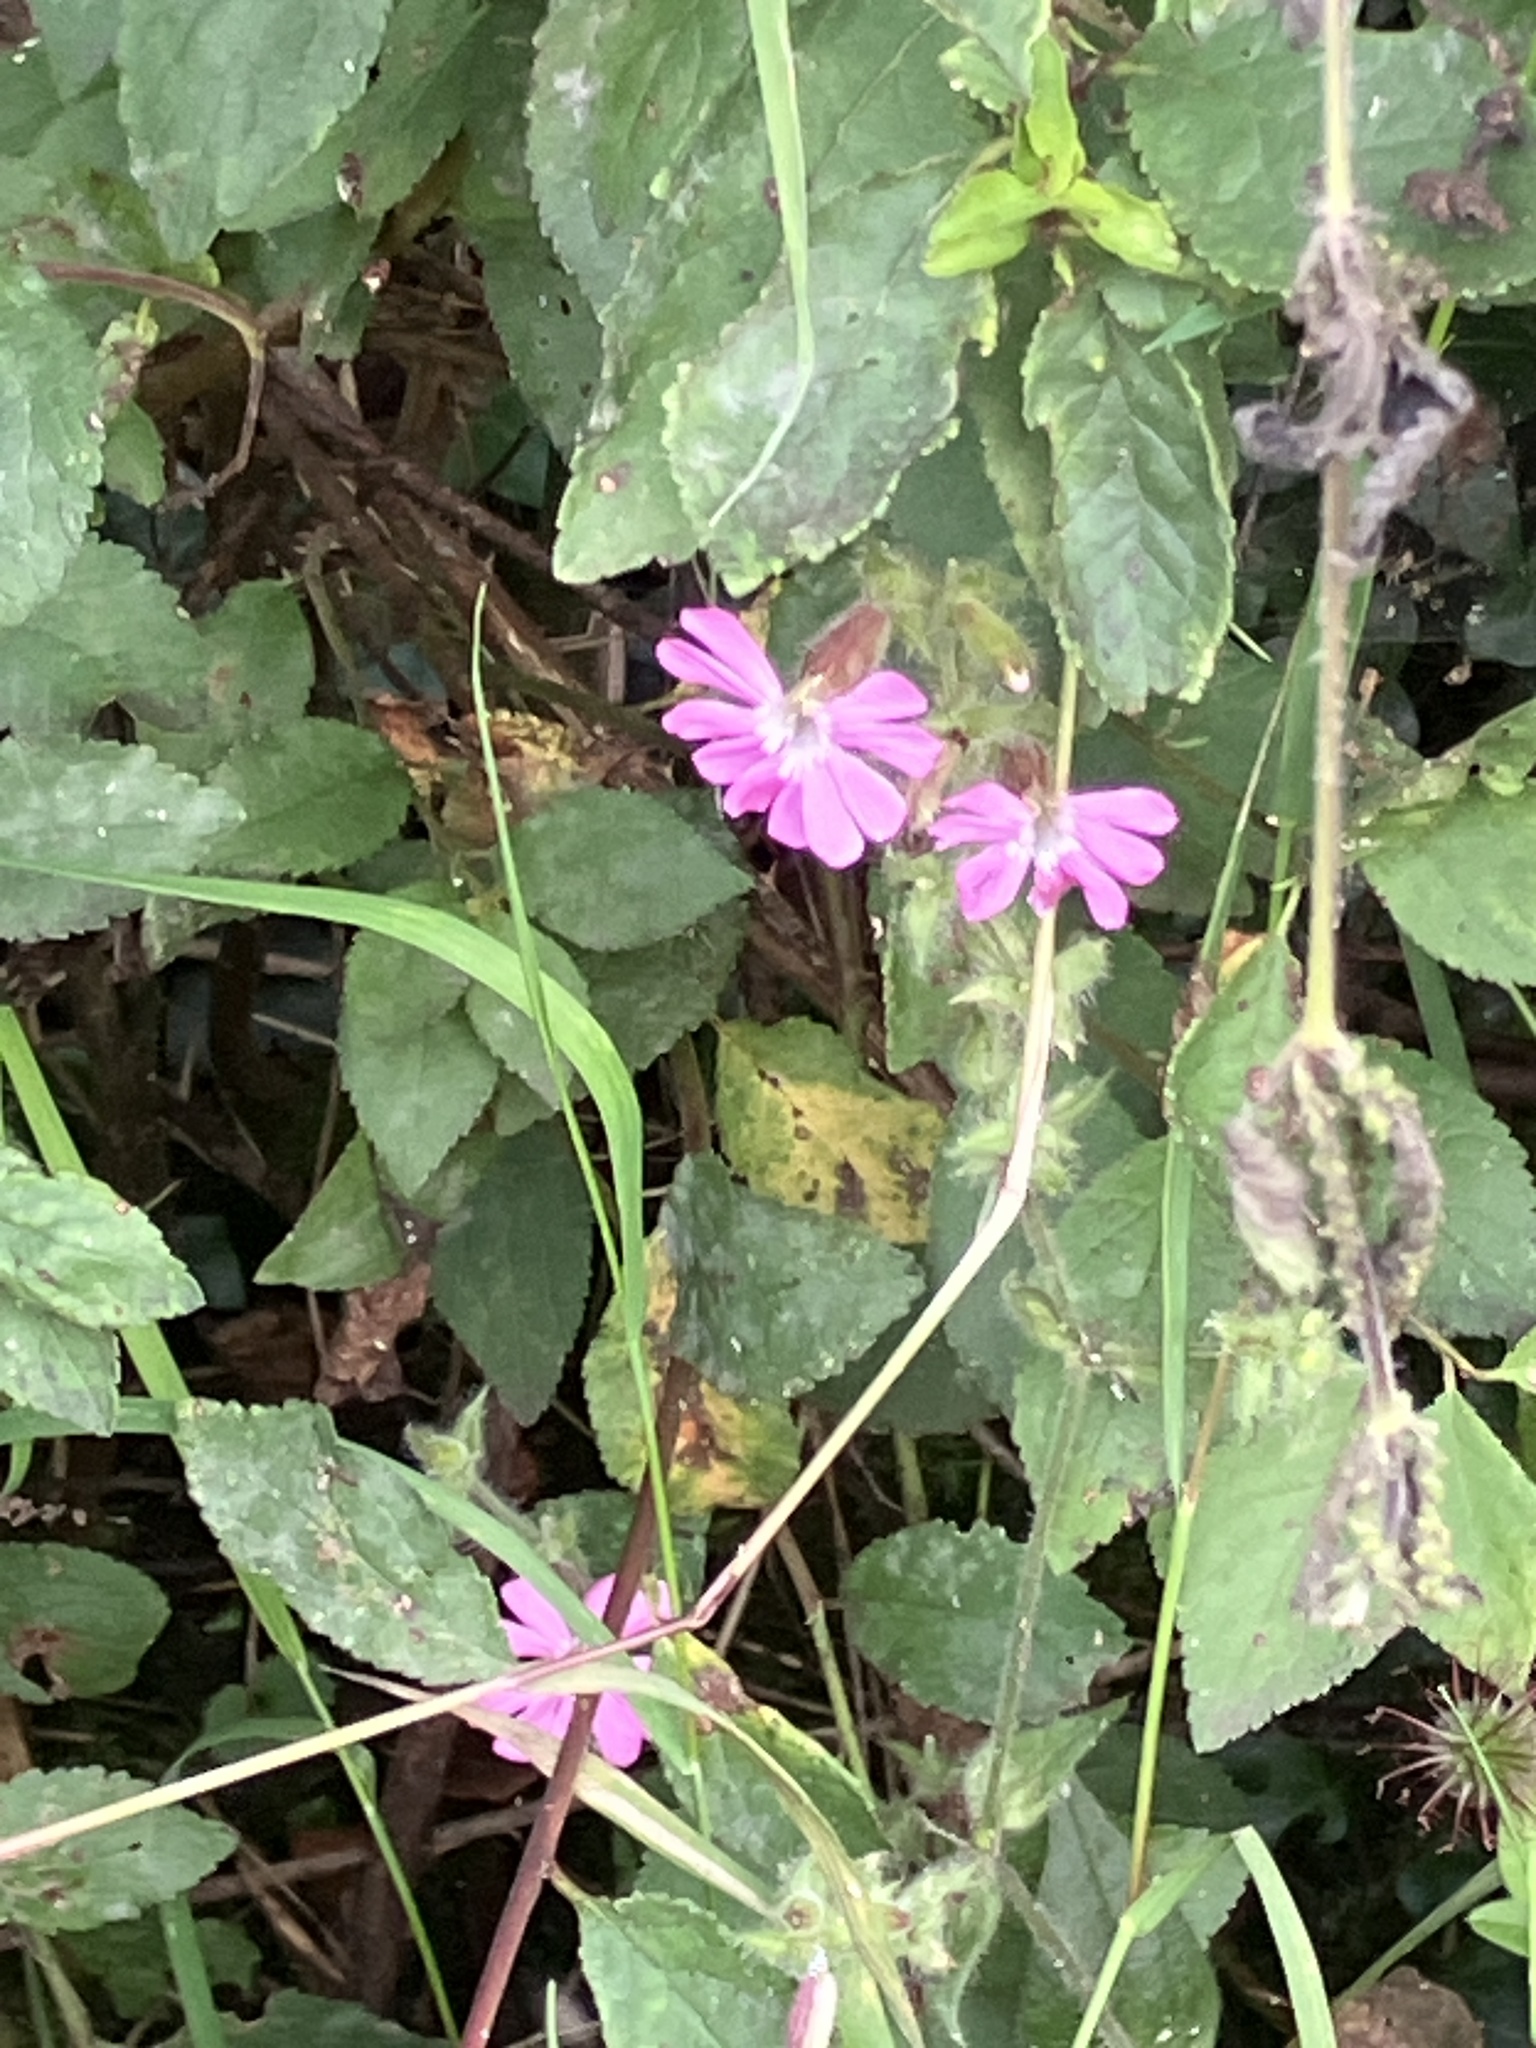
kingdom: Plantae
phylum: Tracheophyta
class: Magnoliopsida
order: Caryophyllales
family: Caryophyllaceae
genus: Silene
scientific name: Silene dioica
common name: Red campion
